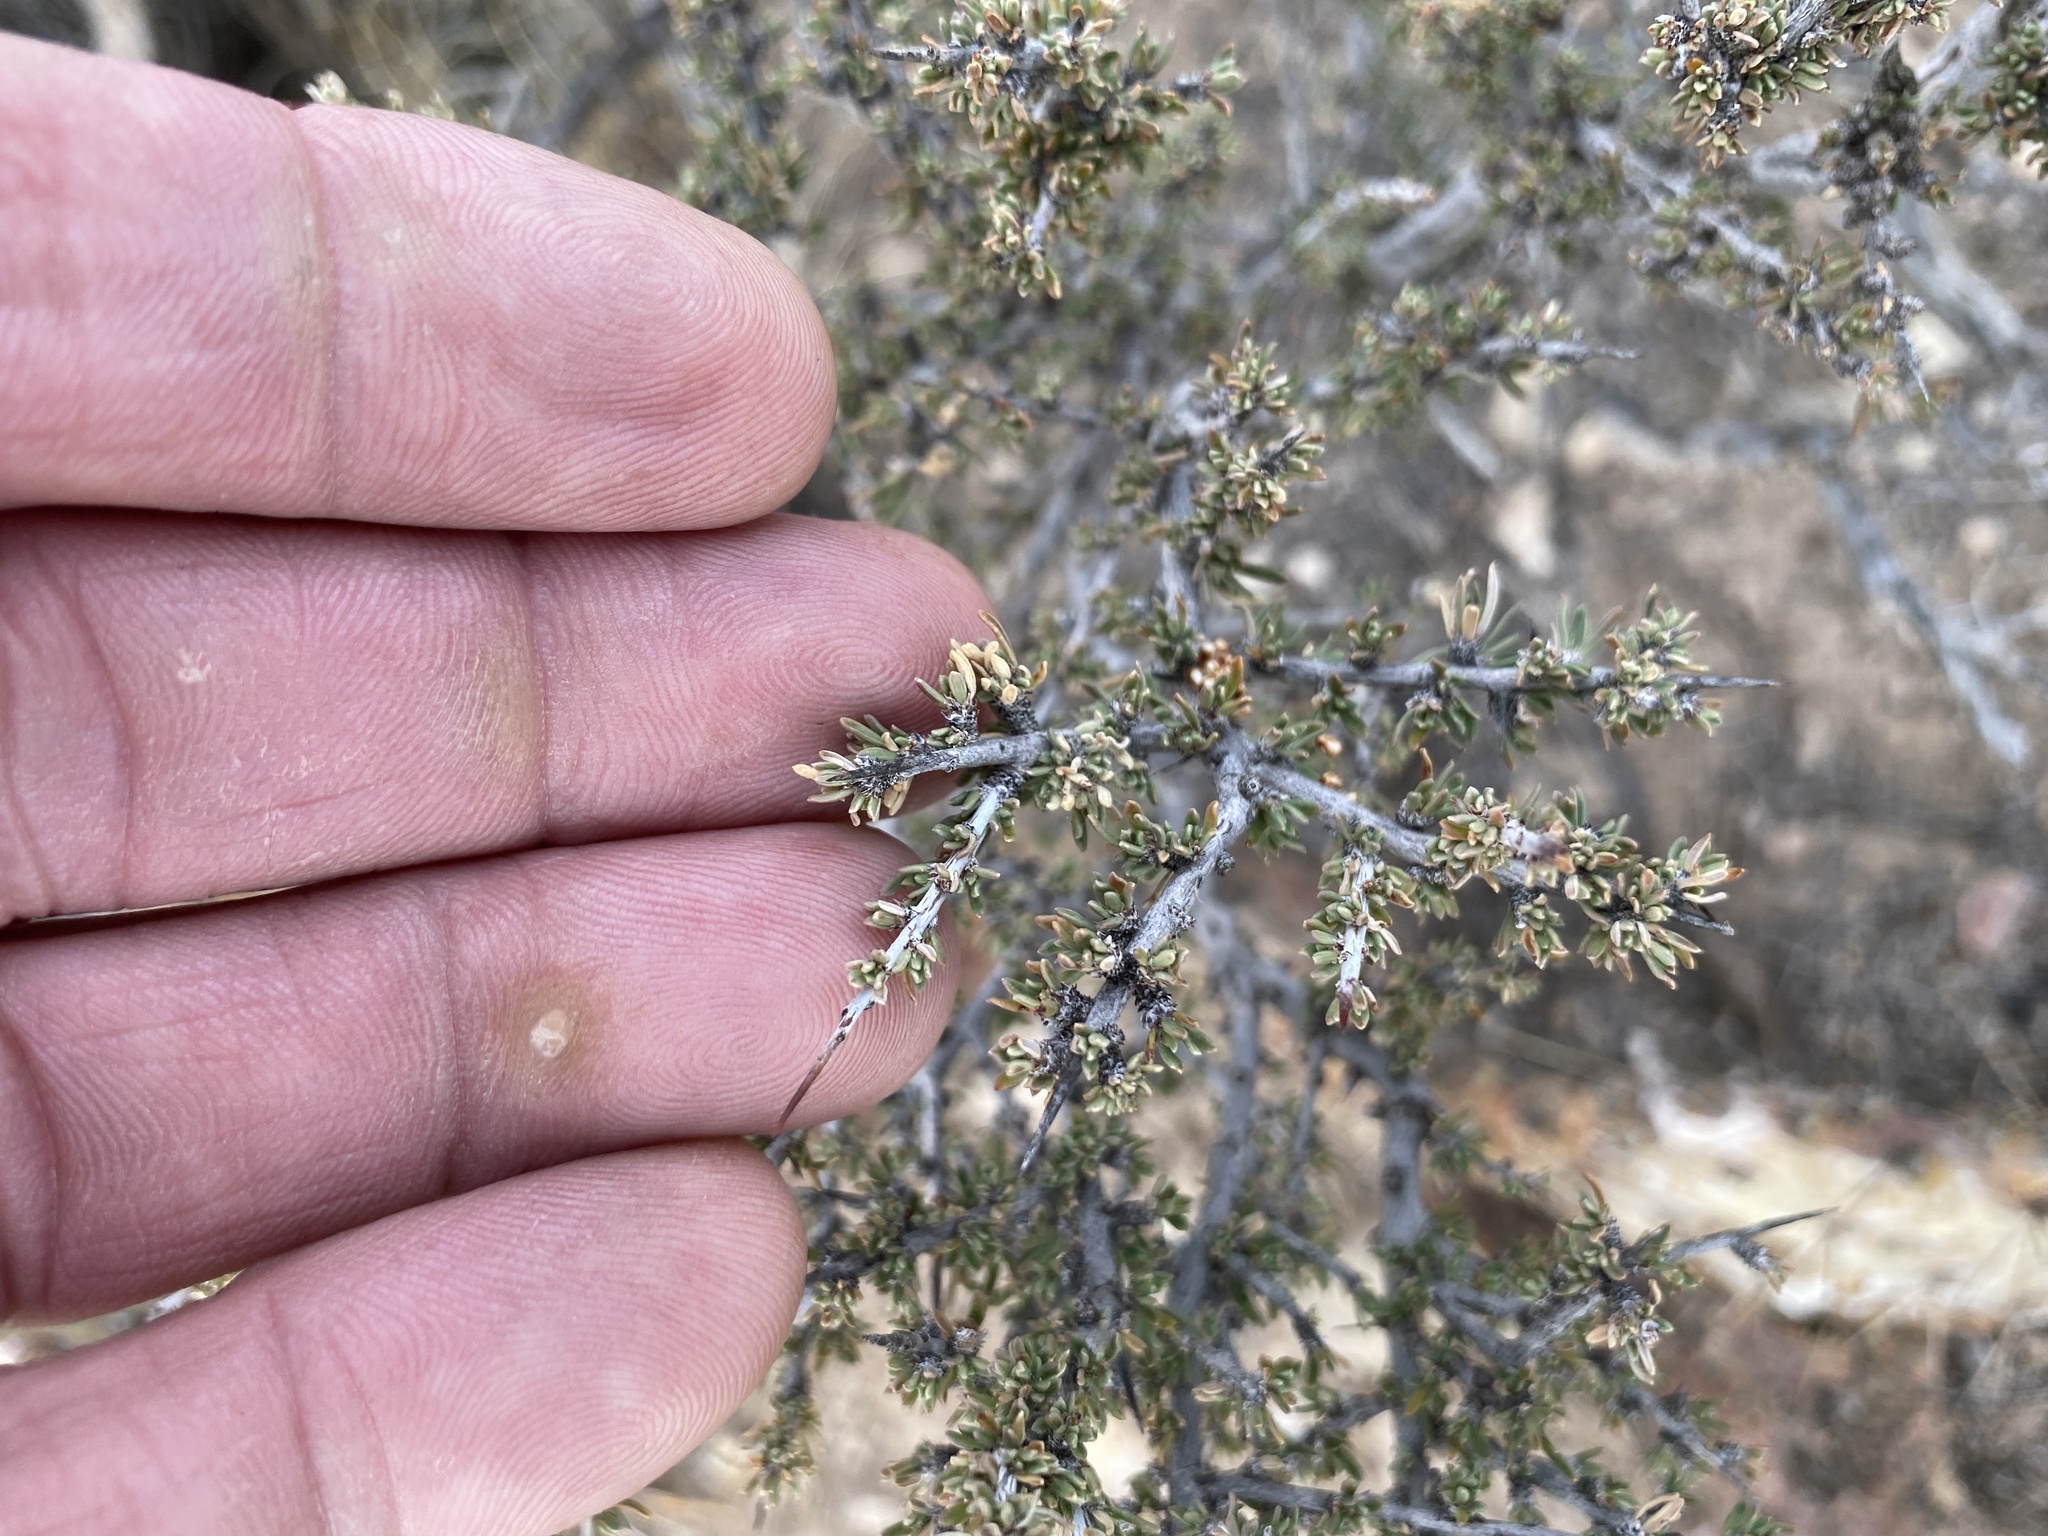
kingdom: Plantae
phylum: Tracheophyta
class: Magnoliopsida
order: Rosales
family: Rhamnaceae
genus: Condalia
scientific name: Condalia ericoides
